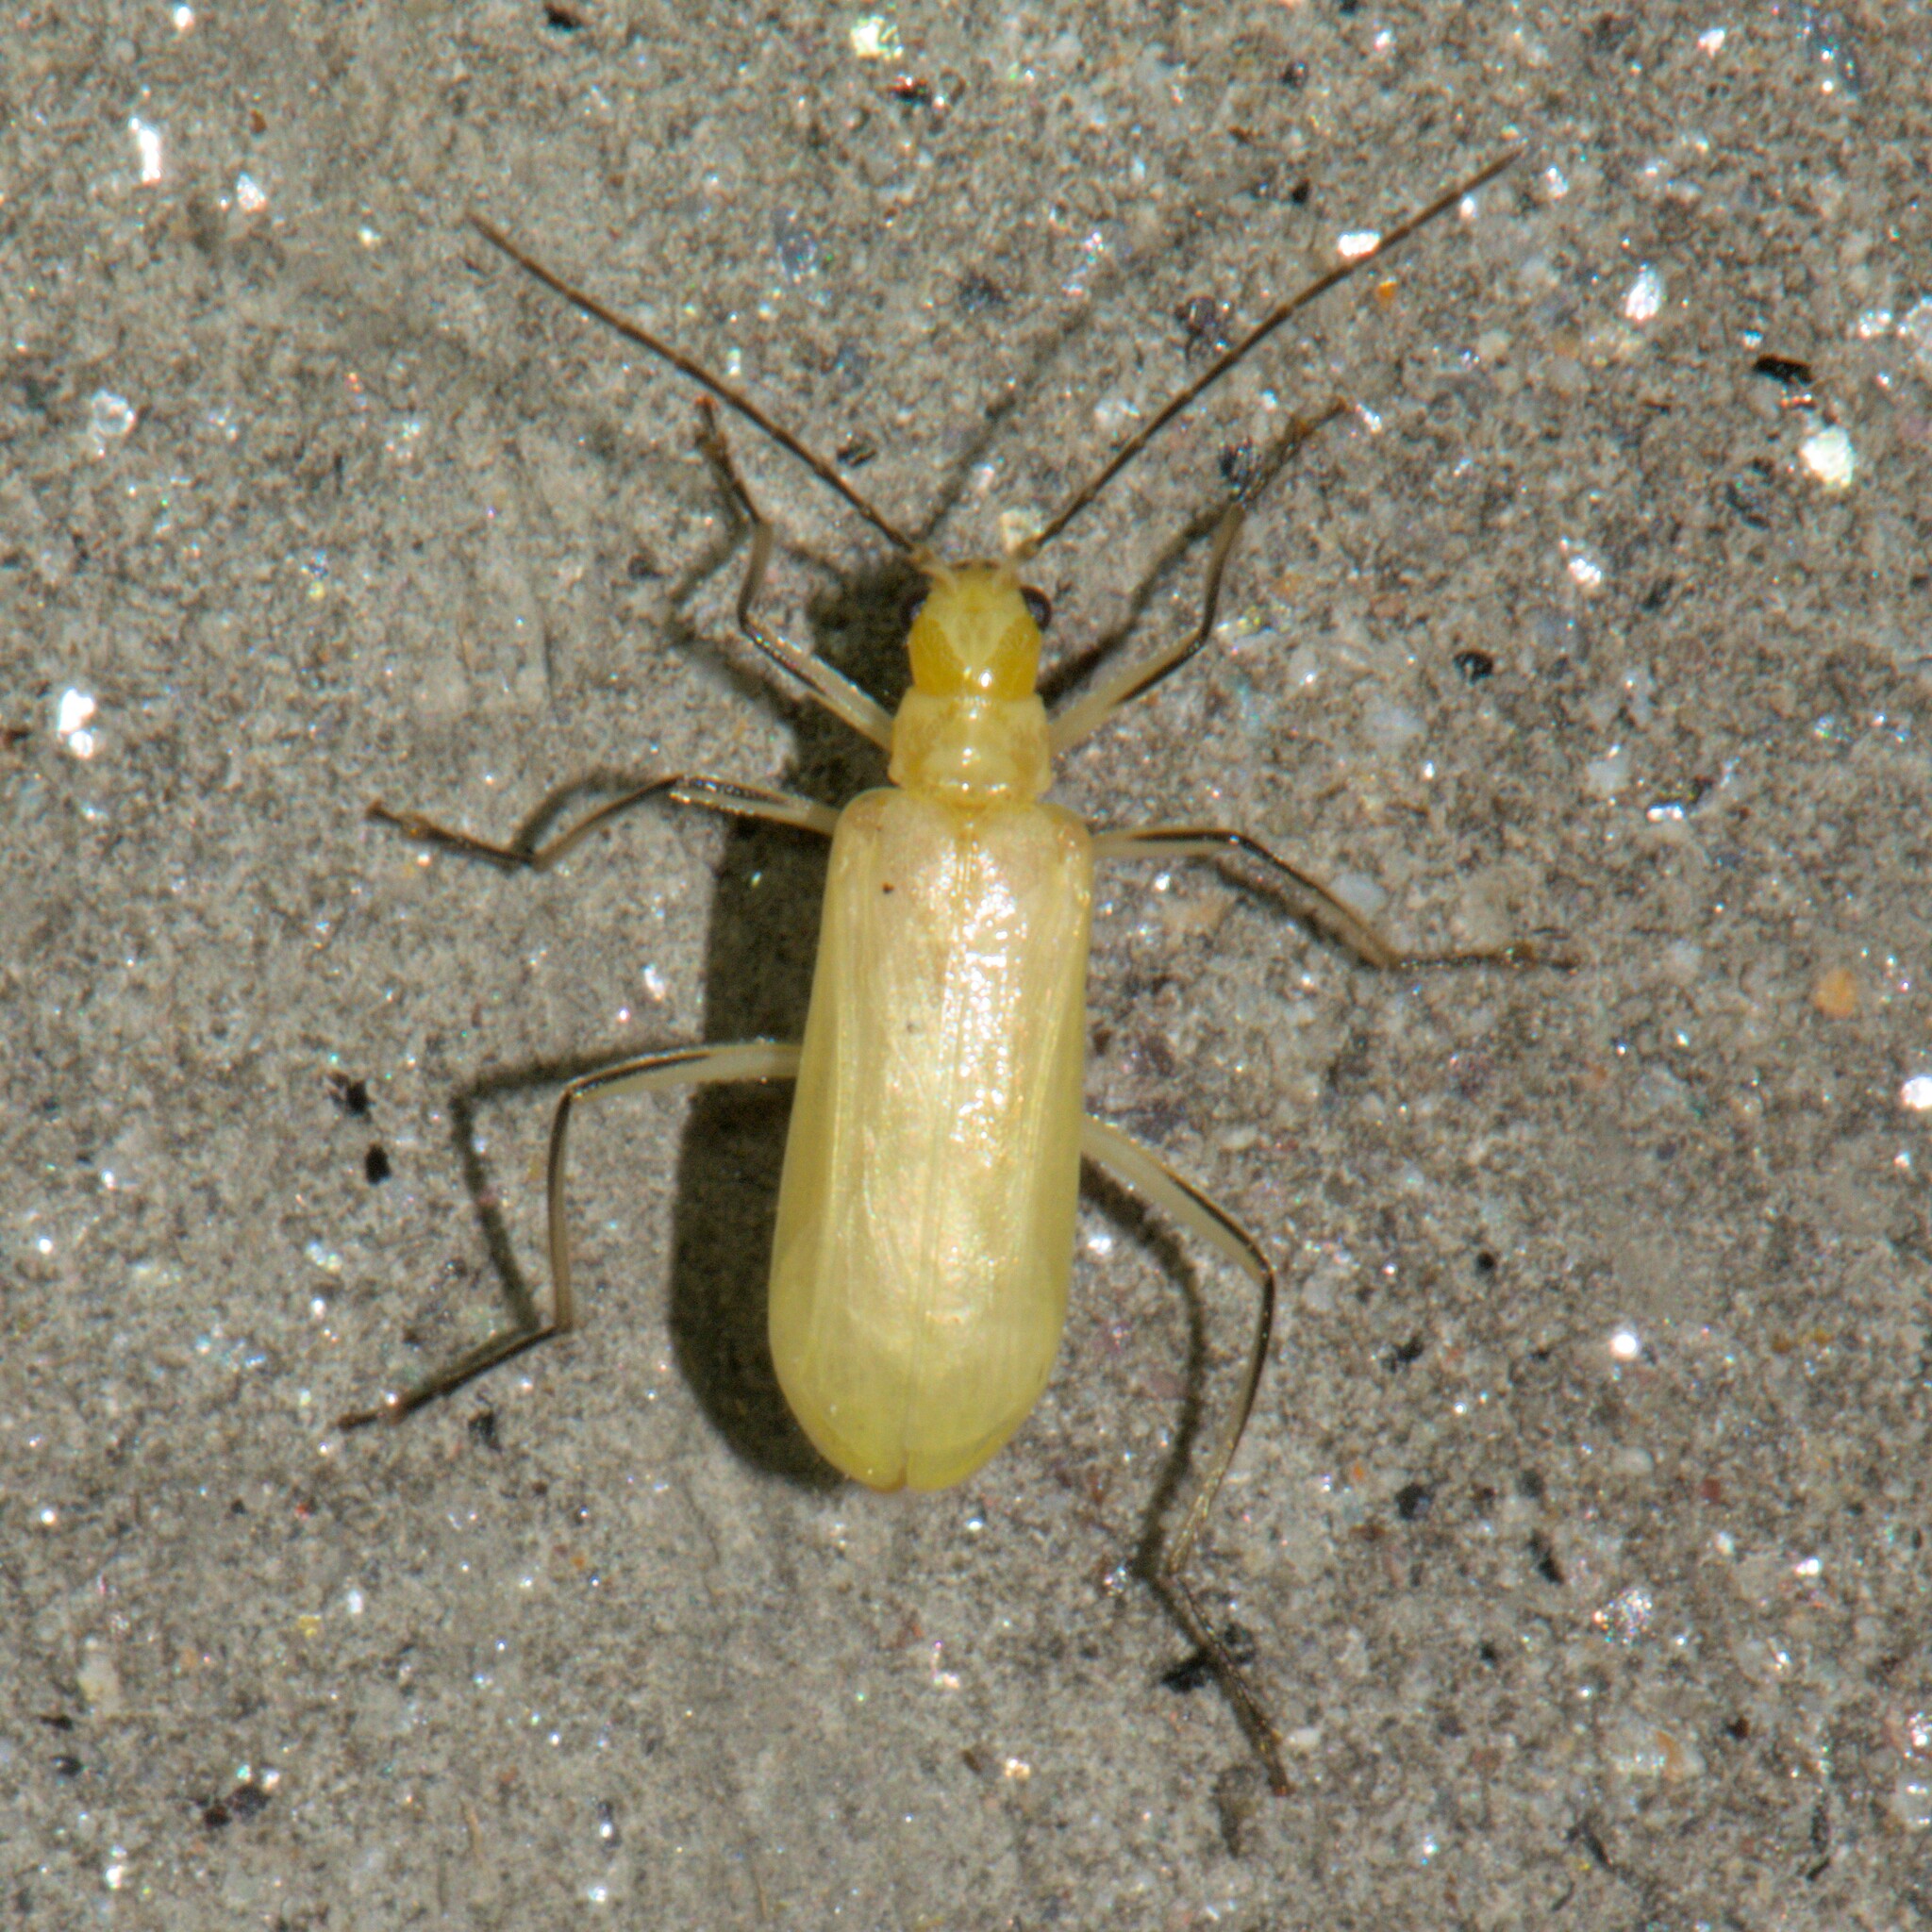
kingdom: Animalia
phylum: Arthropoda
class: Insecta
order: Coleoptera
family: Chrysomelidae
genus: Mimastra
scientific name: Mimastra
